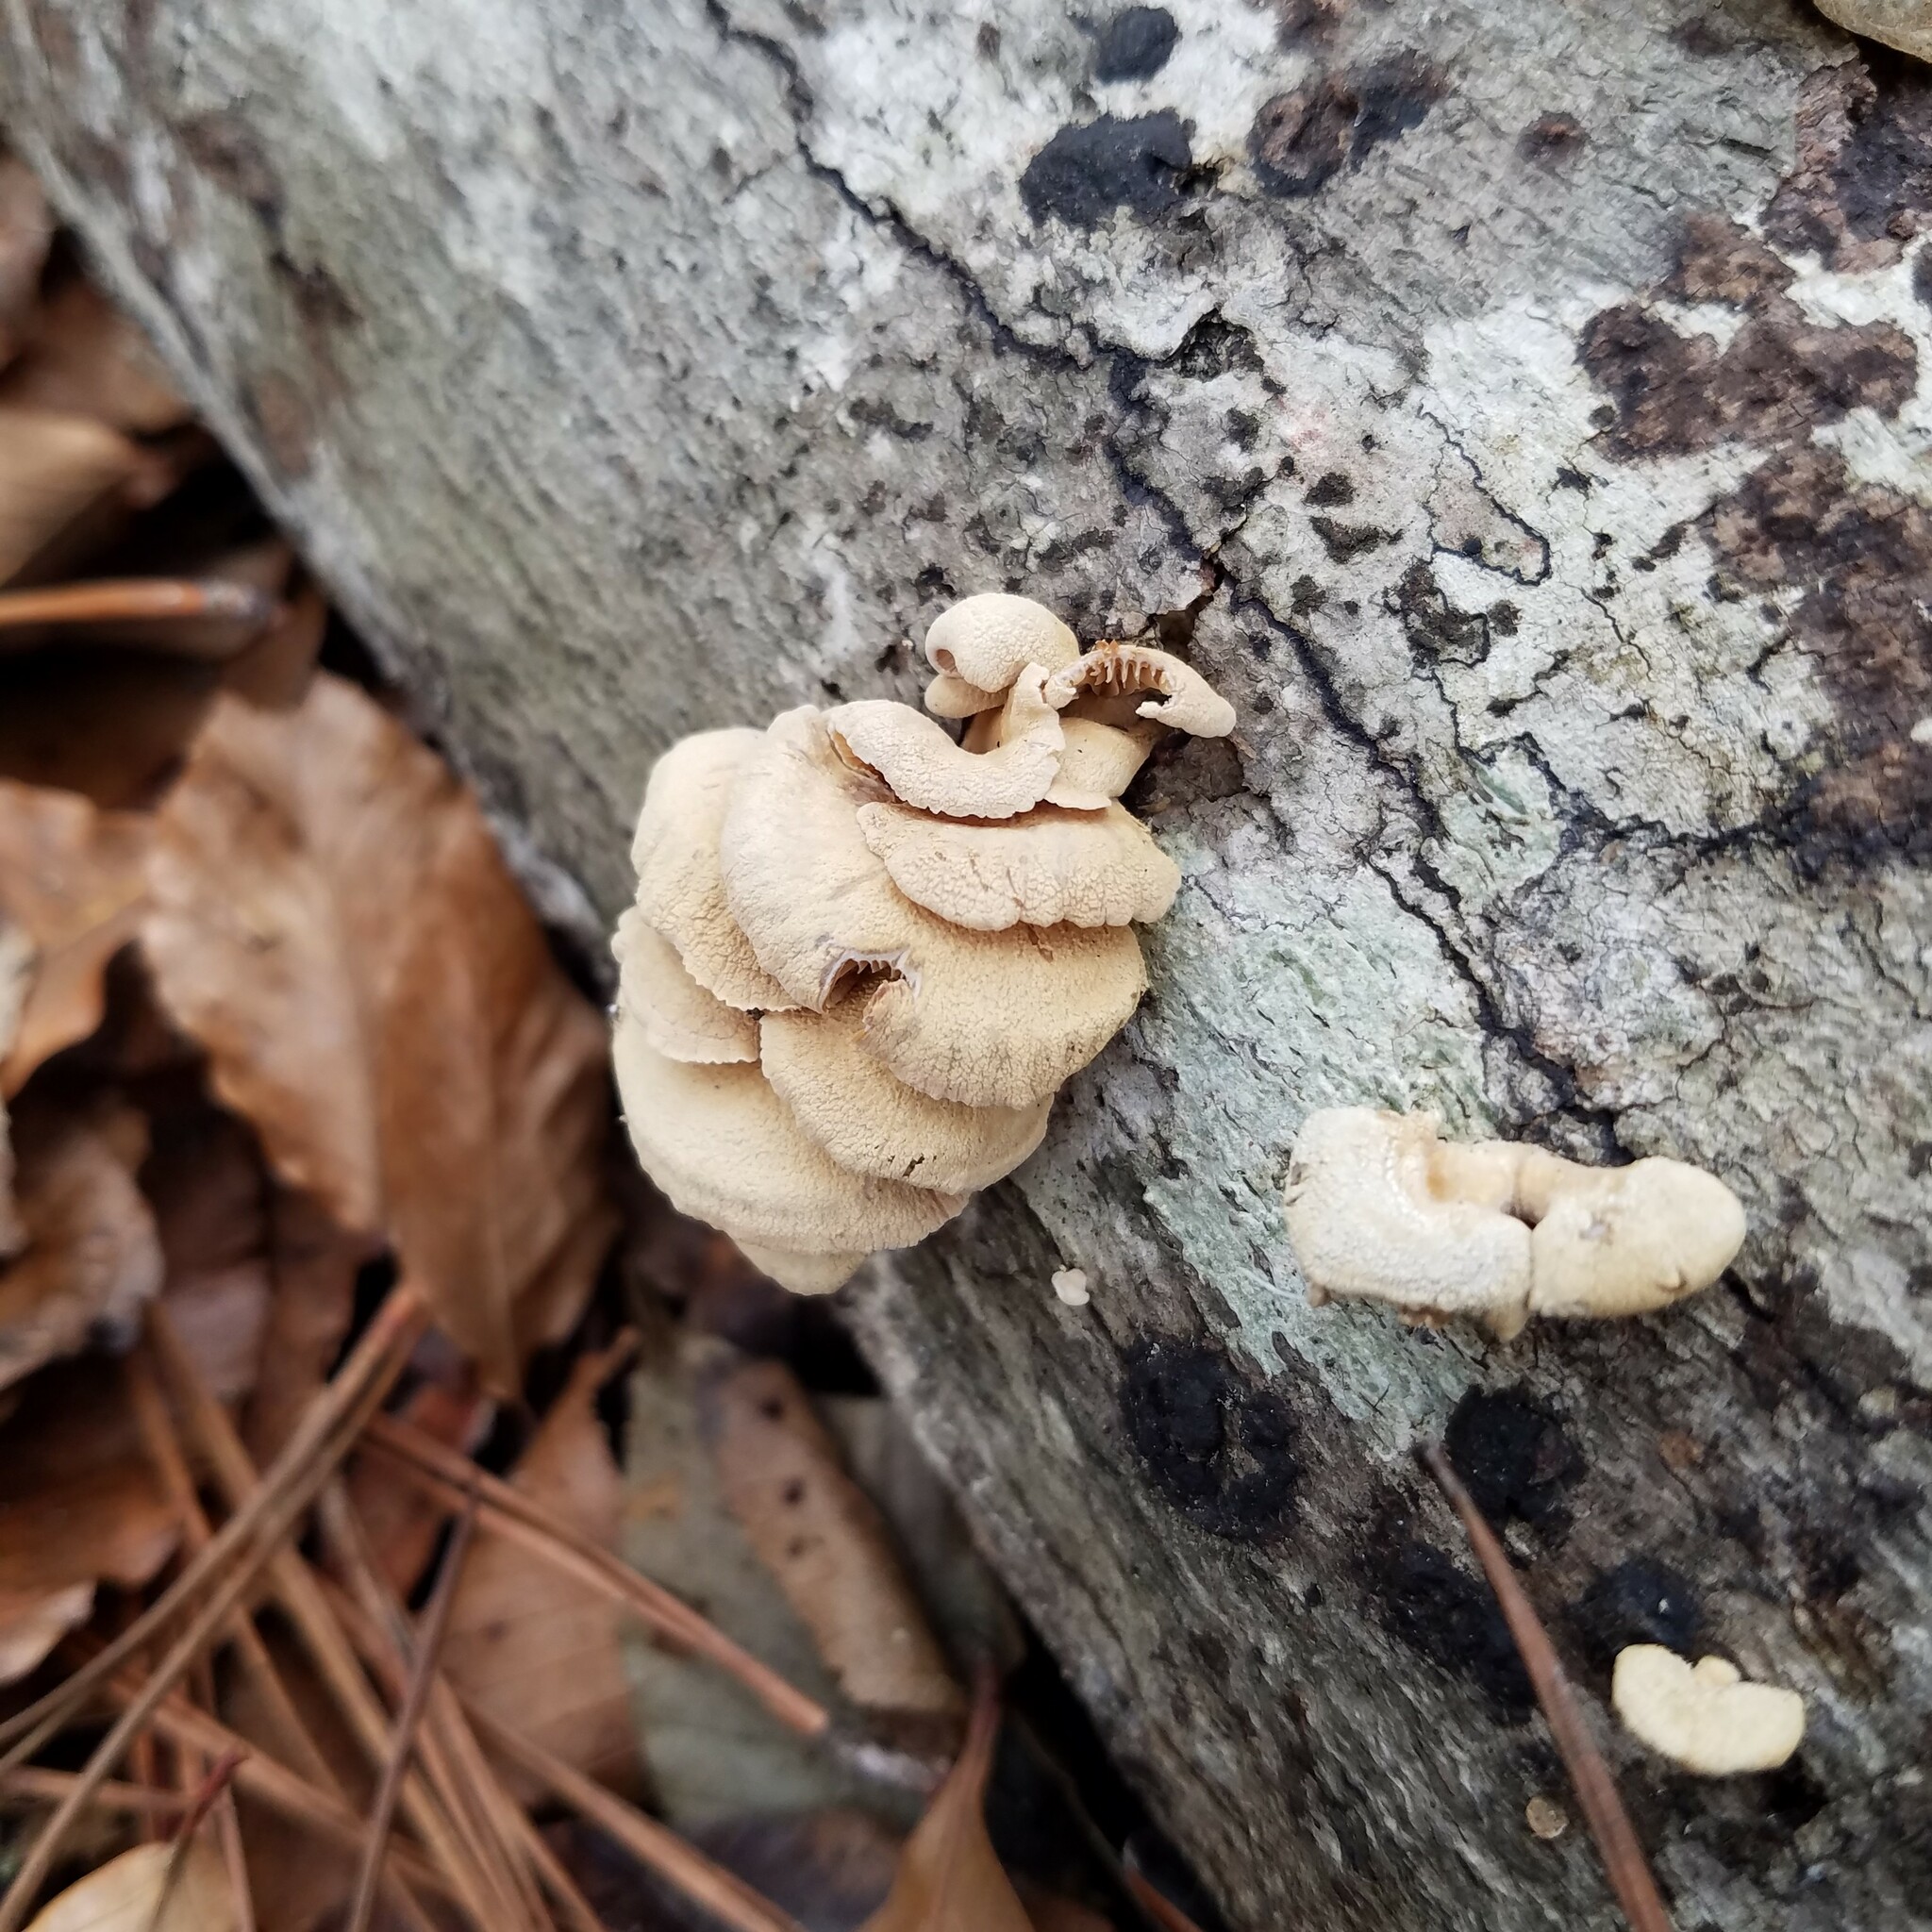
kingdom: Fungi
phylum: Basidiomycota
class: Agaricomycetes
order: Agaricales
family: Mycenaceae
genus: Panellus
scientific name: Panellus stipticus
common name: Bitter oysterling
